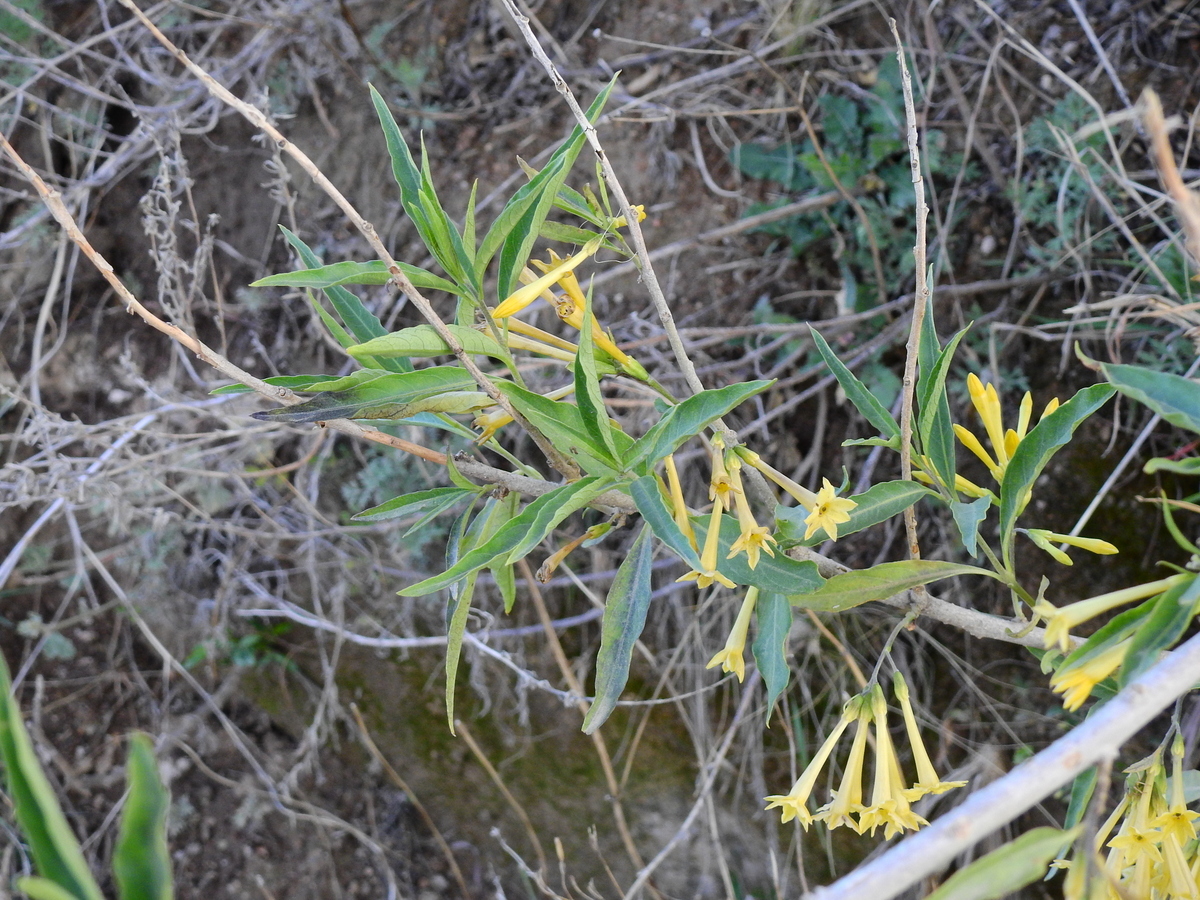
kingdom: Plantae
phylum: Tracheophyta
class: Magnoliopsida
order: Solanales
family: Solanaceae
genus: Cestrum
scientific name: Cestrum parqui
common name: Chilean cestrum
